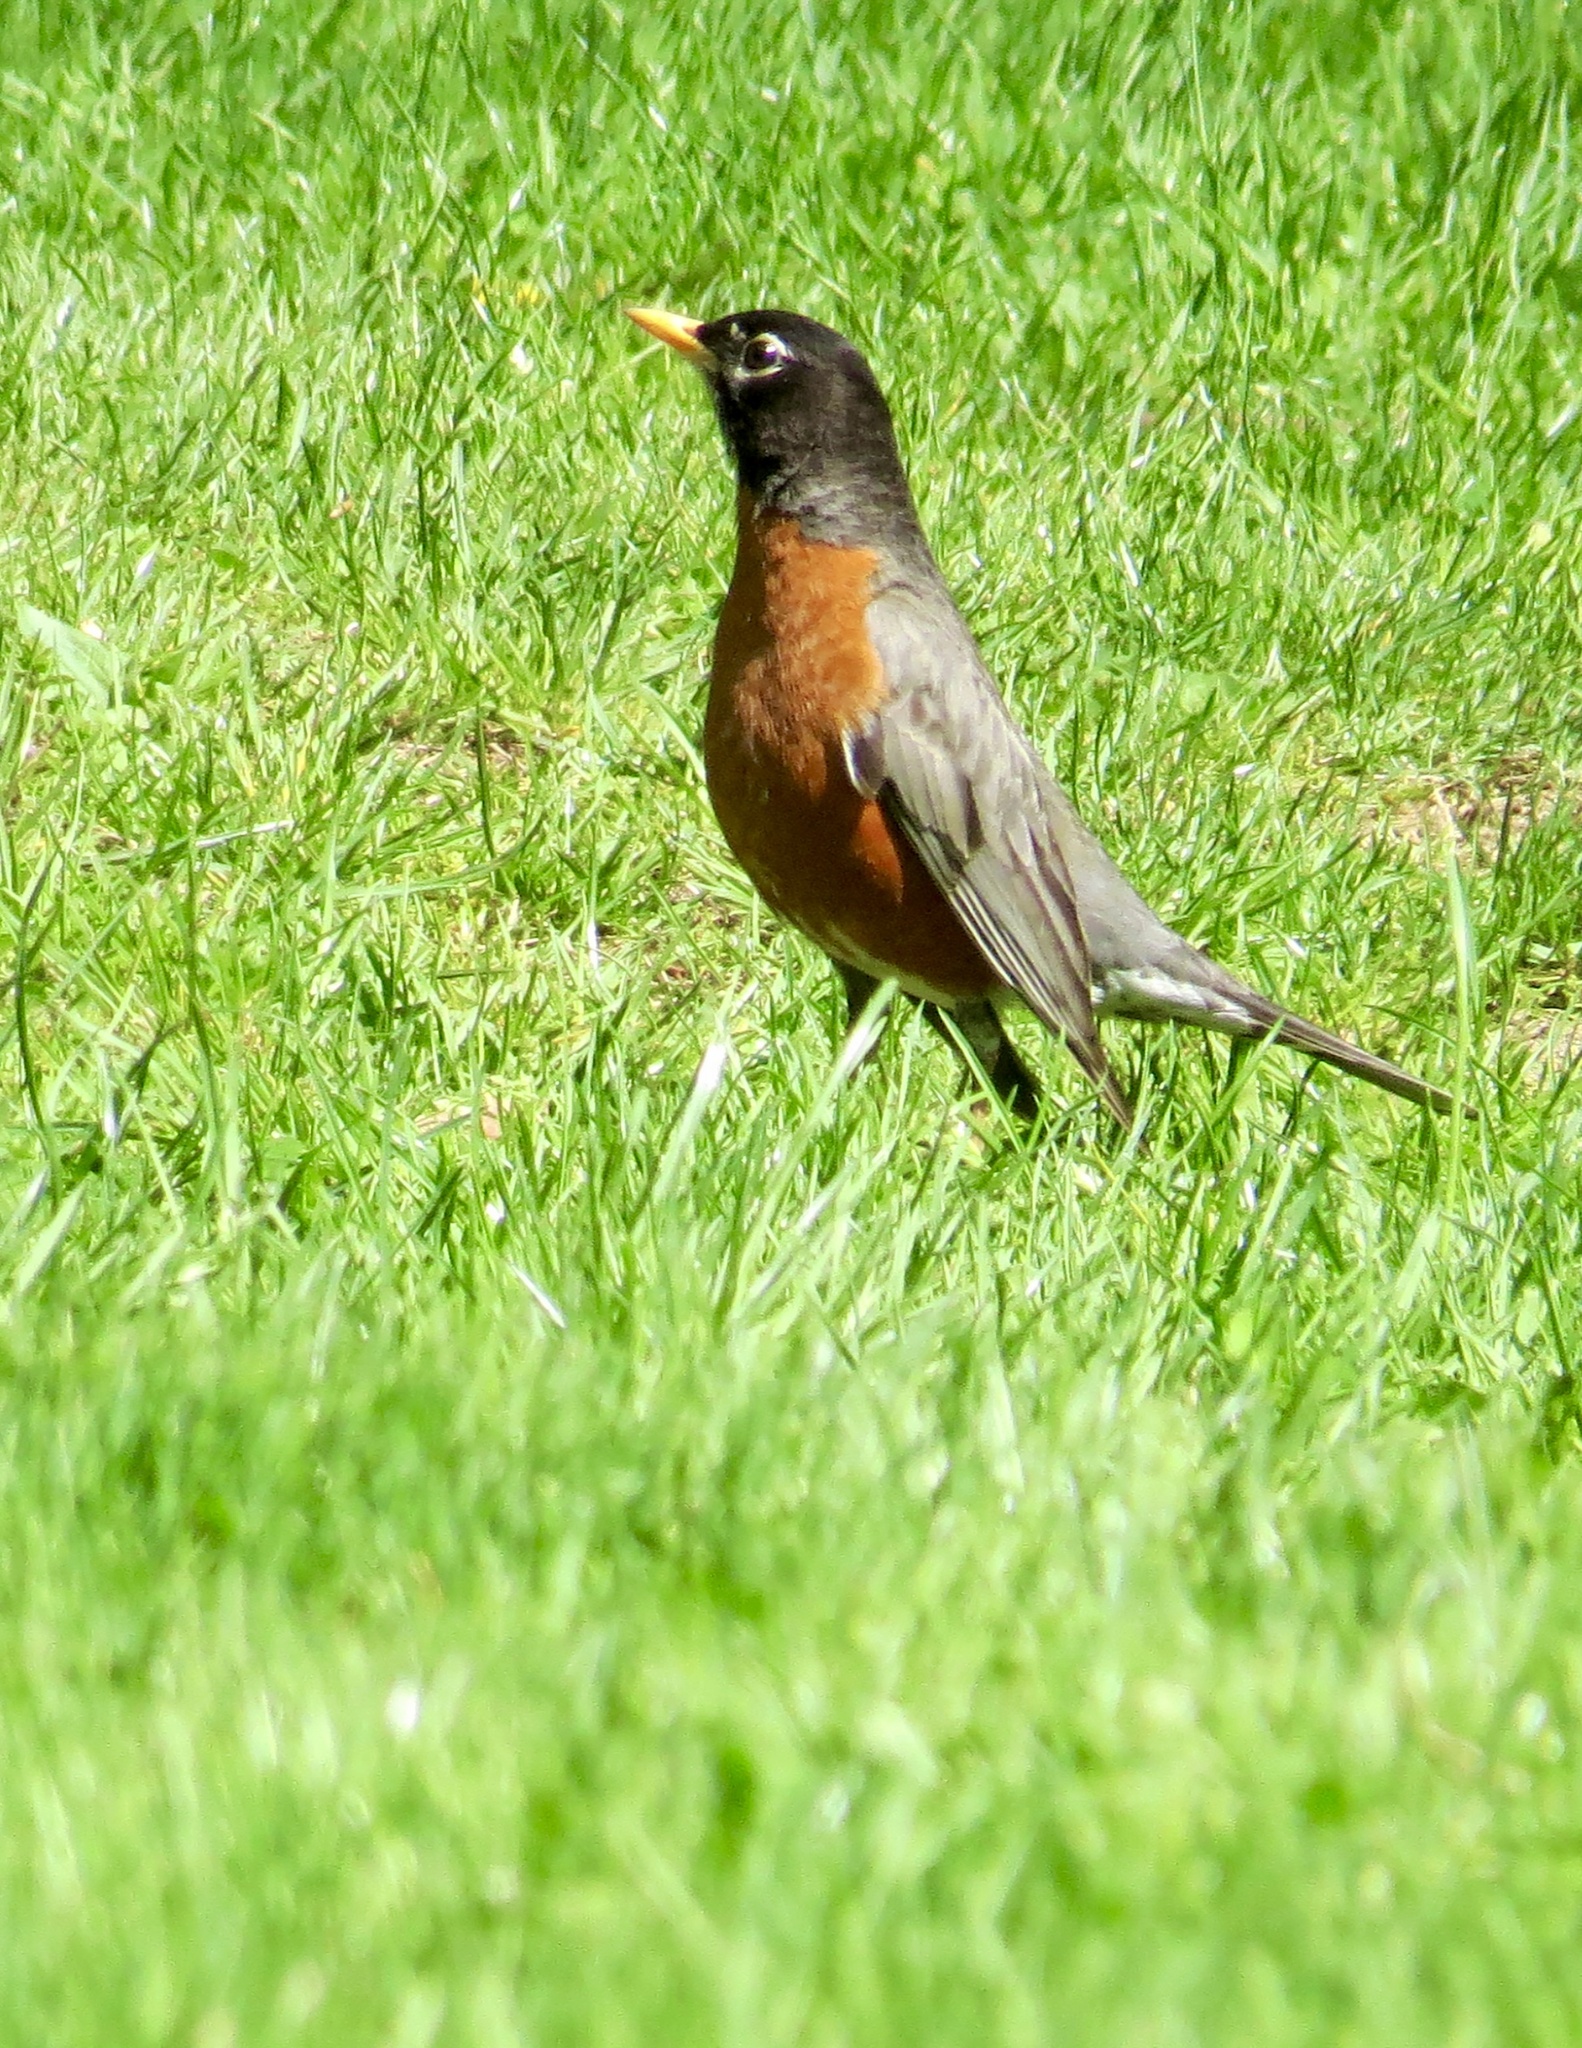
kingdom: Animalia
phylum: Chordata
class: Aves
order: Passeriformes
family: Turdidae
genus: Turdus
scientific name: Turdus migratorius
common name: American robin
